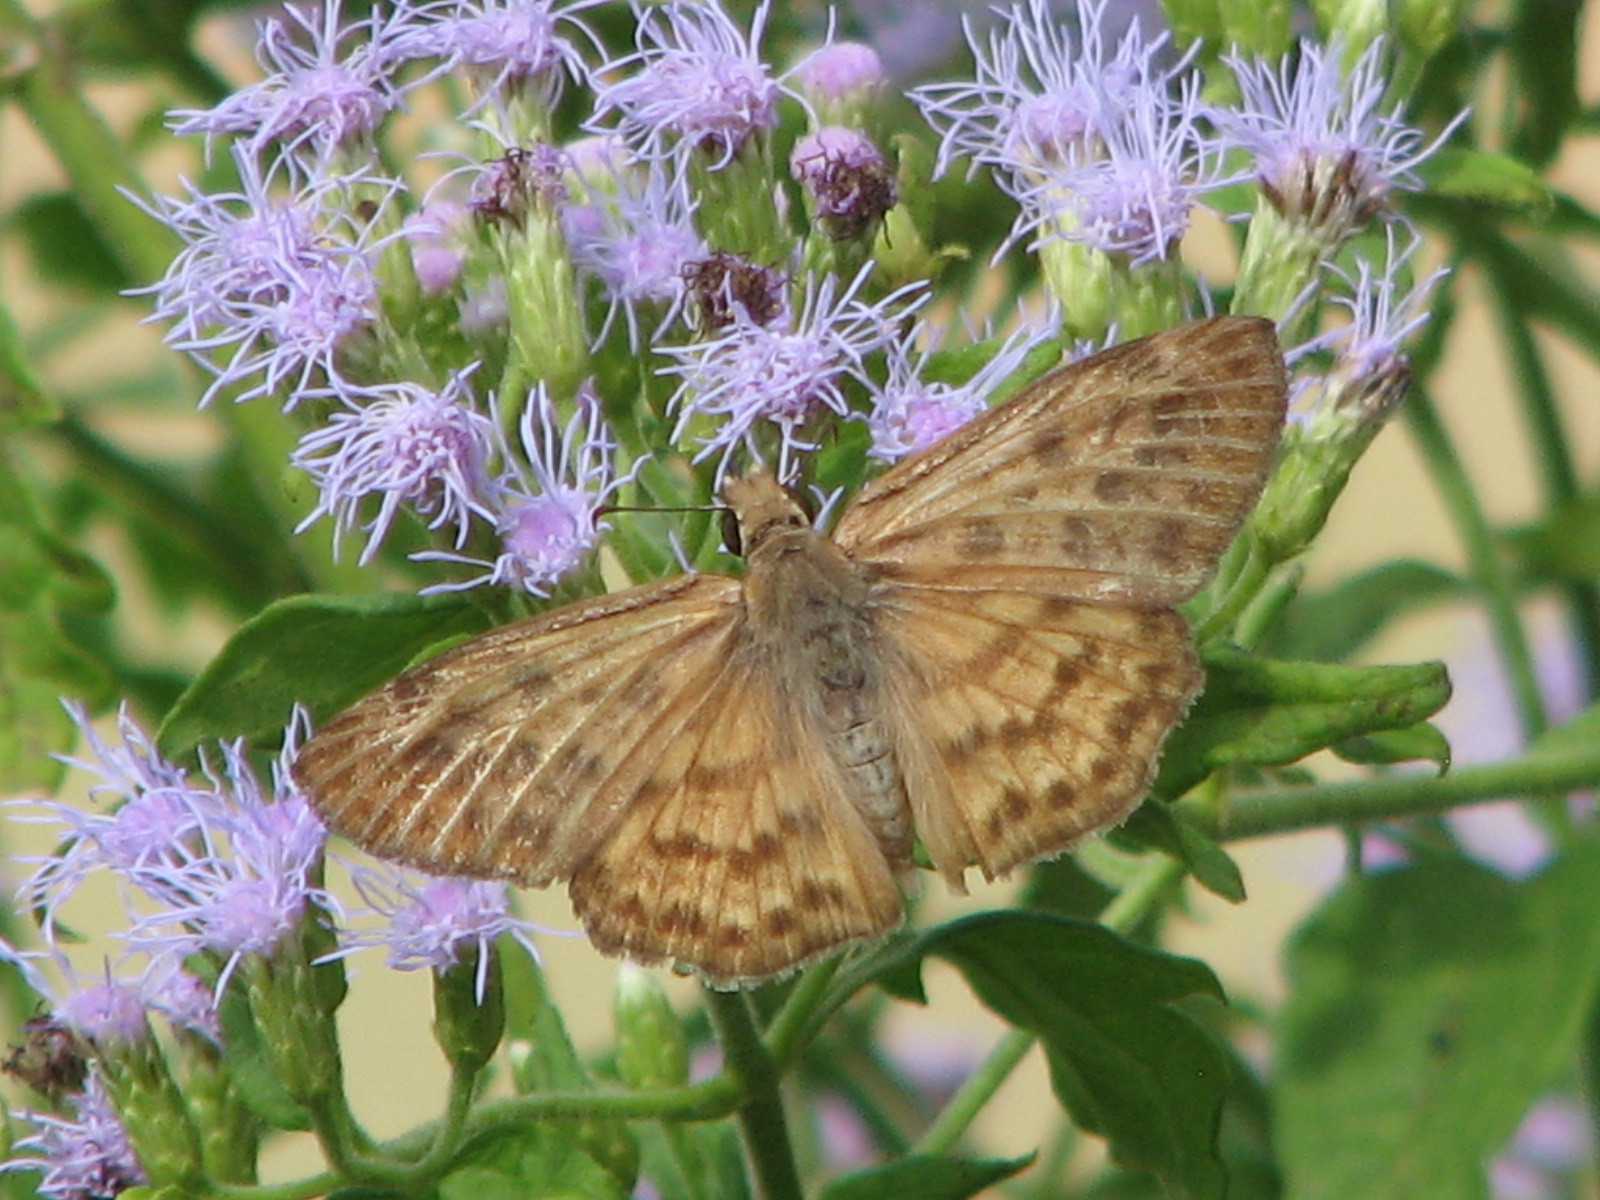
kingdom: Animalia
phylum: Arthropoda
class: Insecta
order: Lepidoptera
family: Hesperiidae
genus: Timochares
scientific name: Timochares ruptifasciata
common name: Brown-banded skipper
